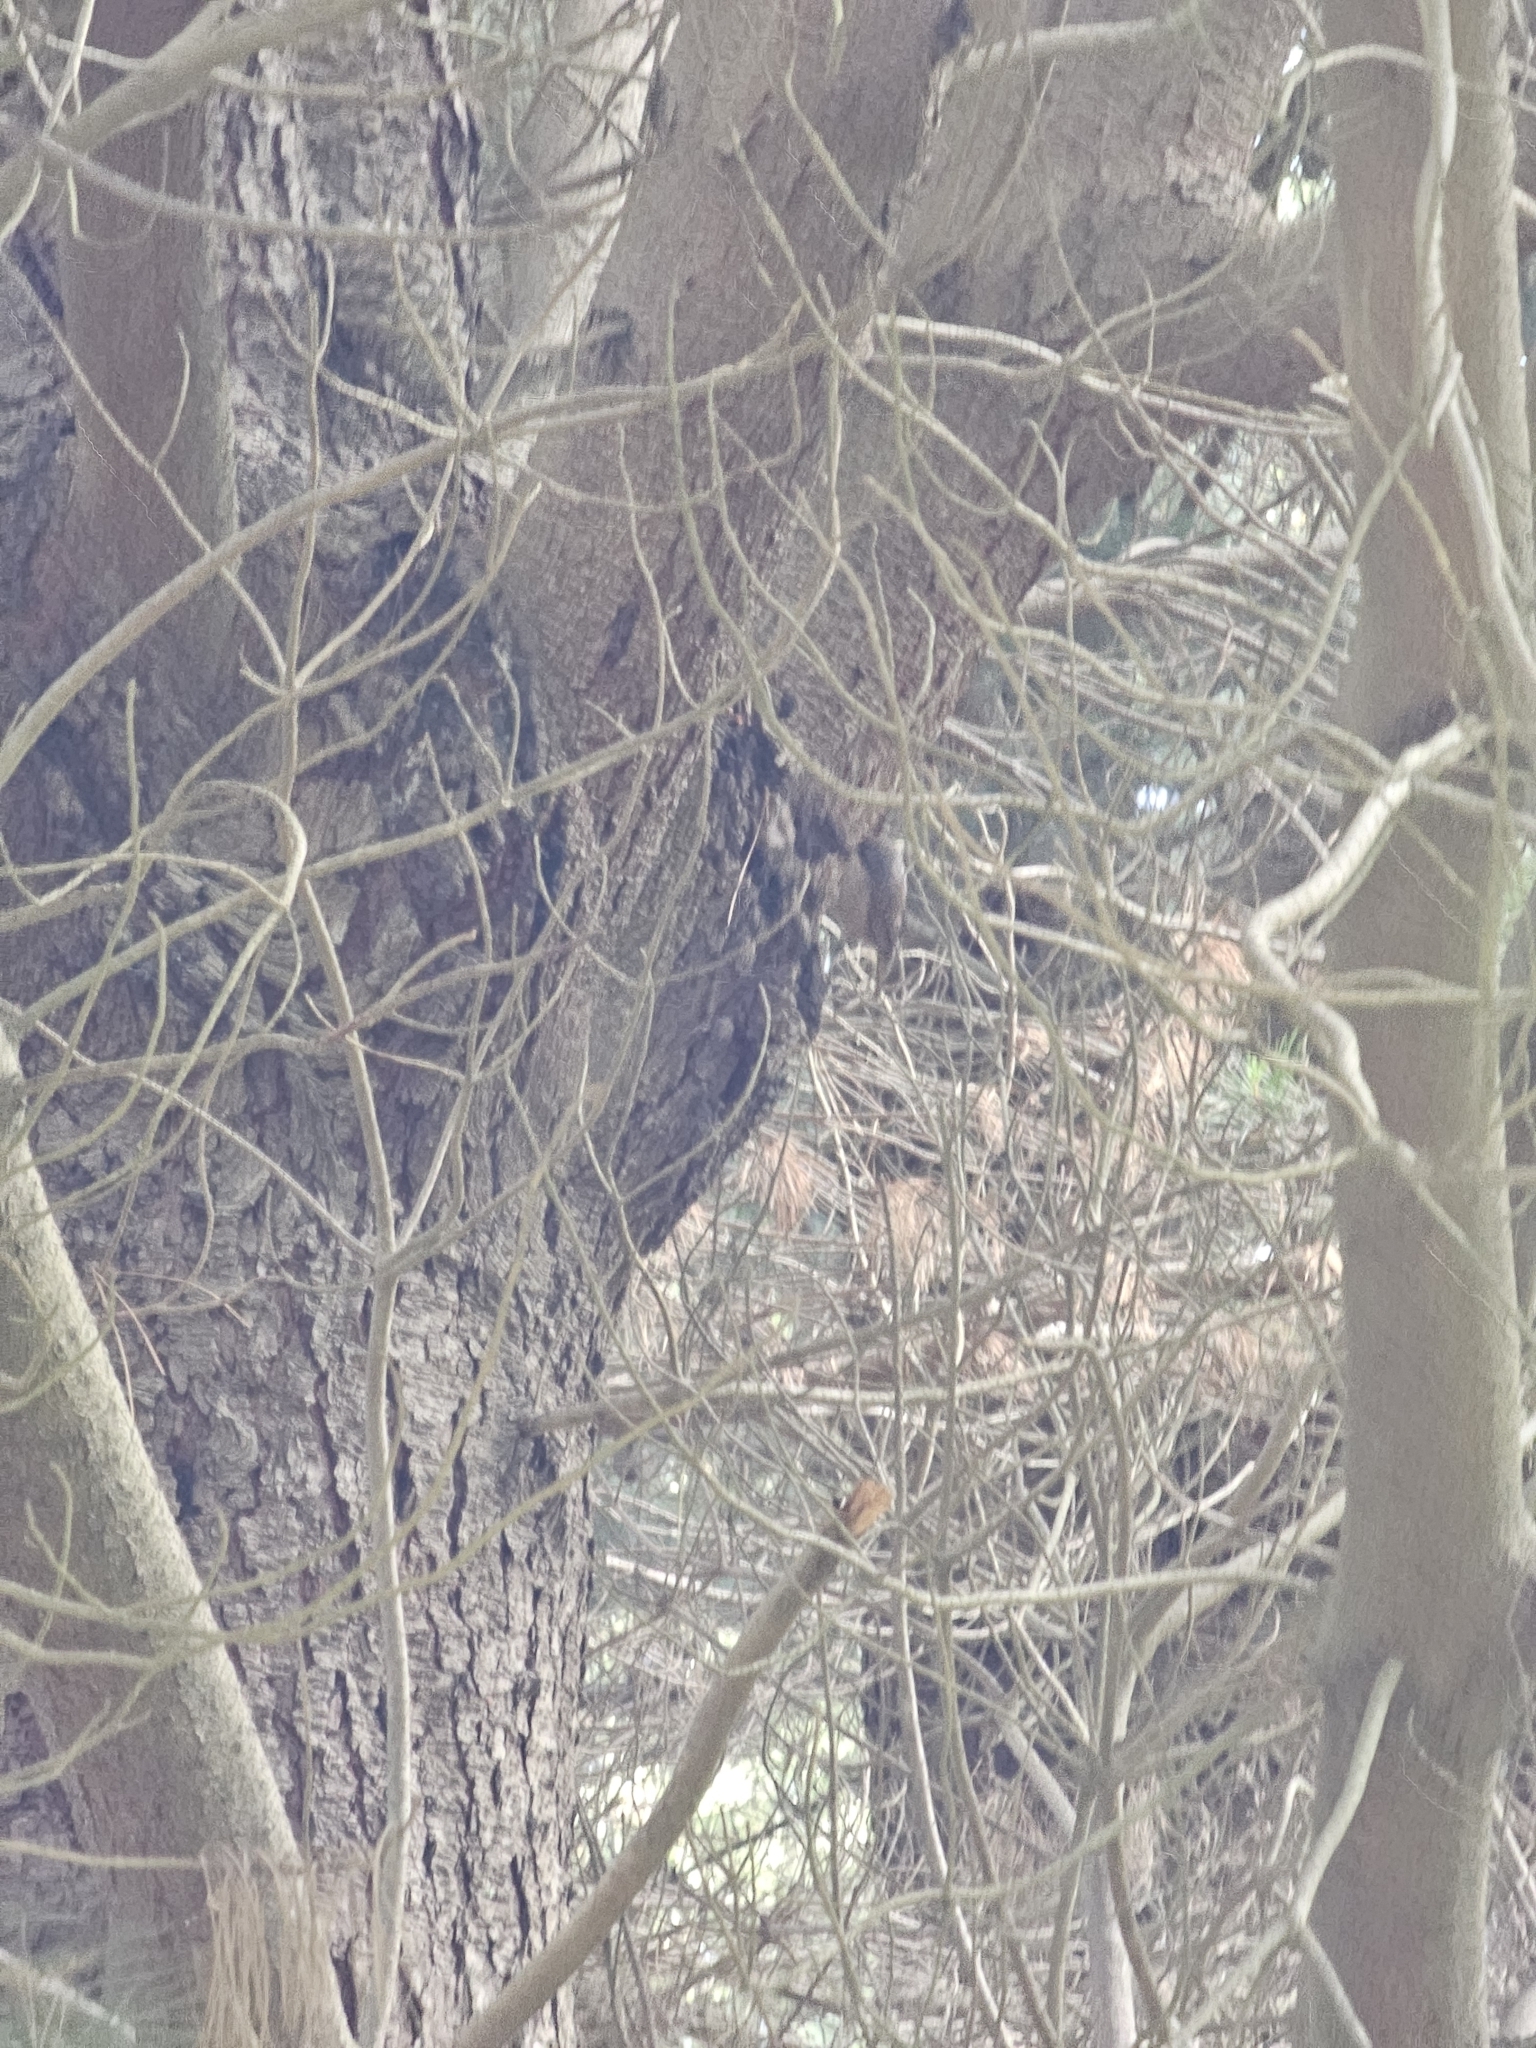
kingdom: Animalia
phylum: Chordata
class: Aves
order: Passeriformes
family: Acanthizidae
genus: Finschia
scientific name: Finschia novaeseelandiae
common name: Pipipi
